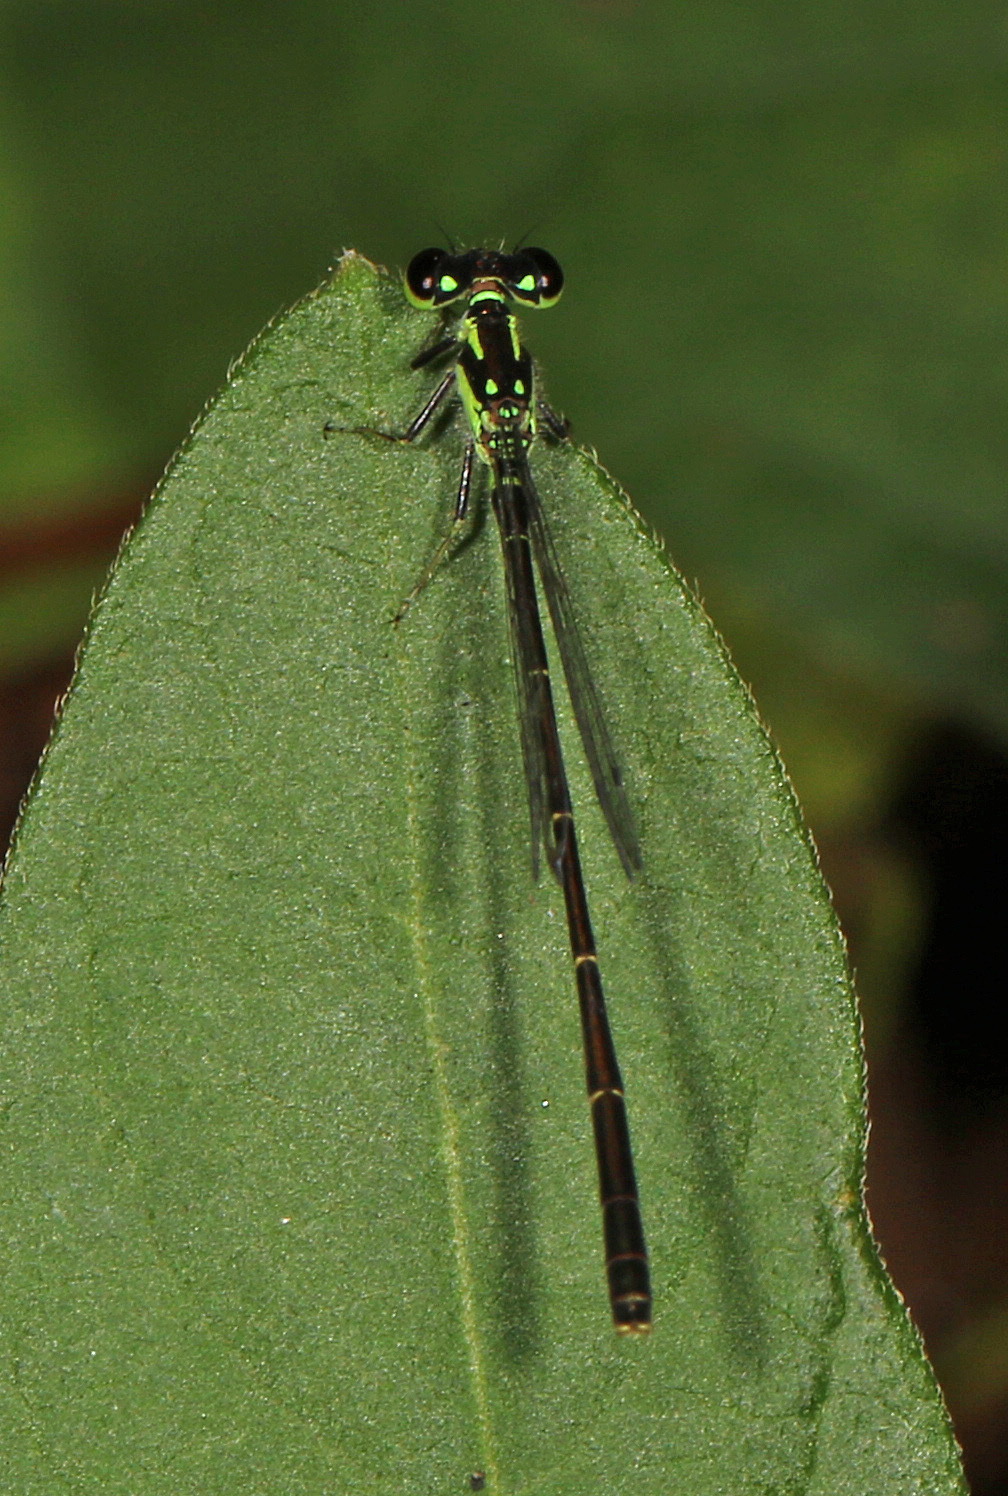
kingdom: Animalia
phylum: Arthropoda
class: Insecta
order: Odonata
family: Coenagrionidae
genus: Ischnura
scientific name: Ischnura posita
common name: Fragile forktail
